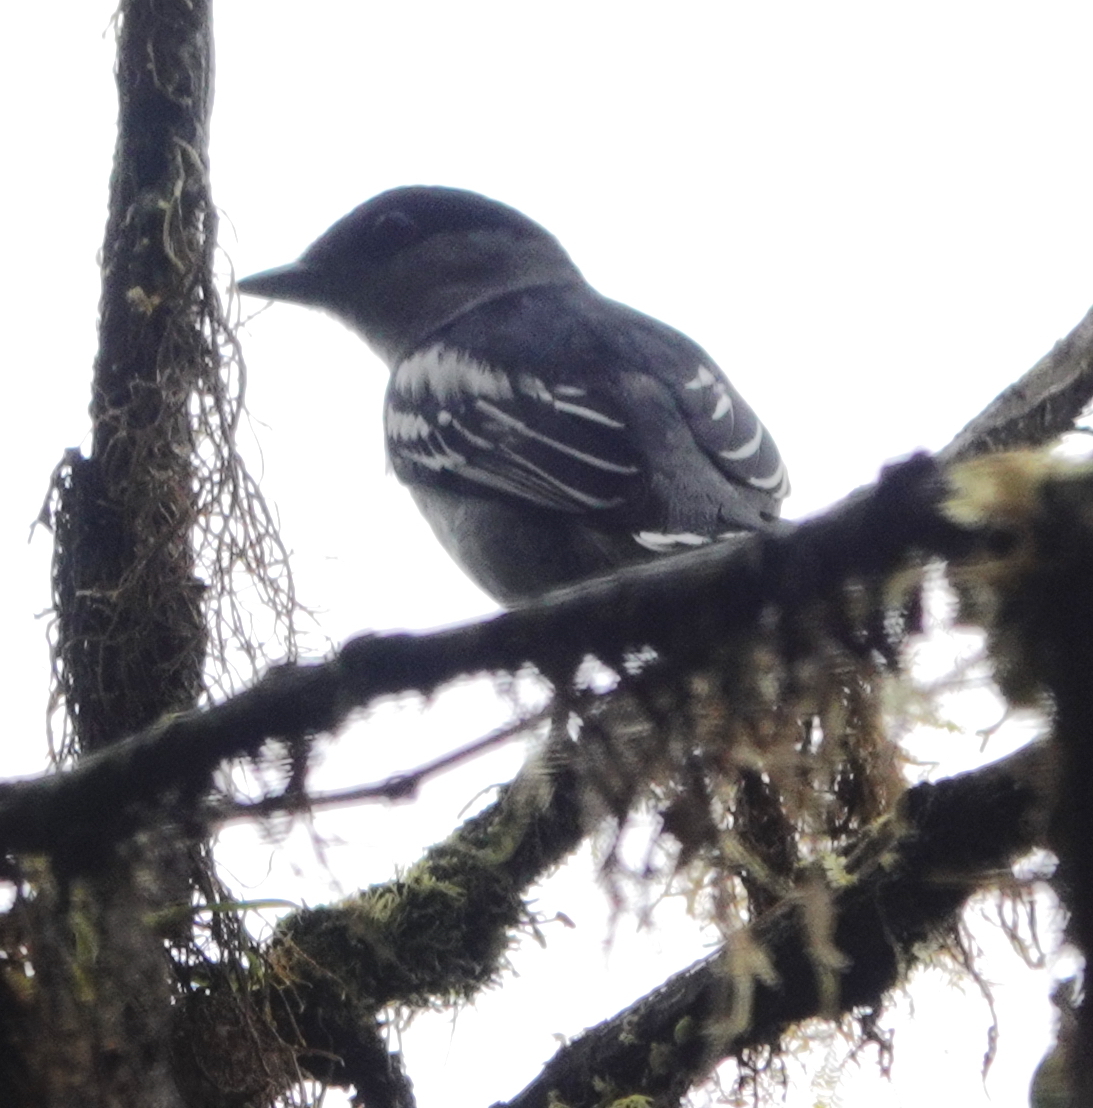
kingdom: Animalia
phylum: Chordata
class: Aves
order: Passeriformes
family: Cotingidae
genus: Pachyramphus
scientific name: Pachyramphus polychopterus
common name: White-winged becard
